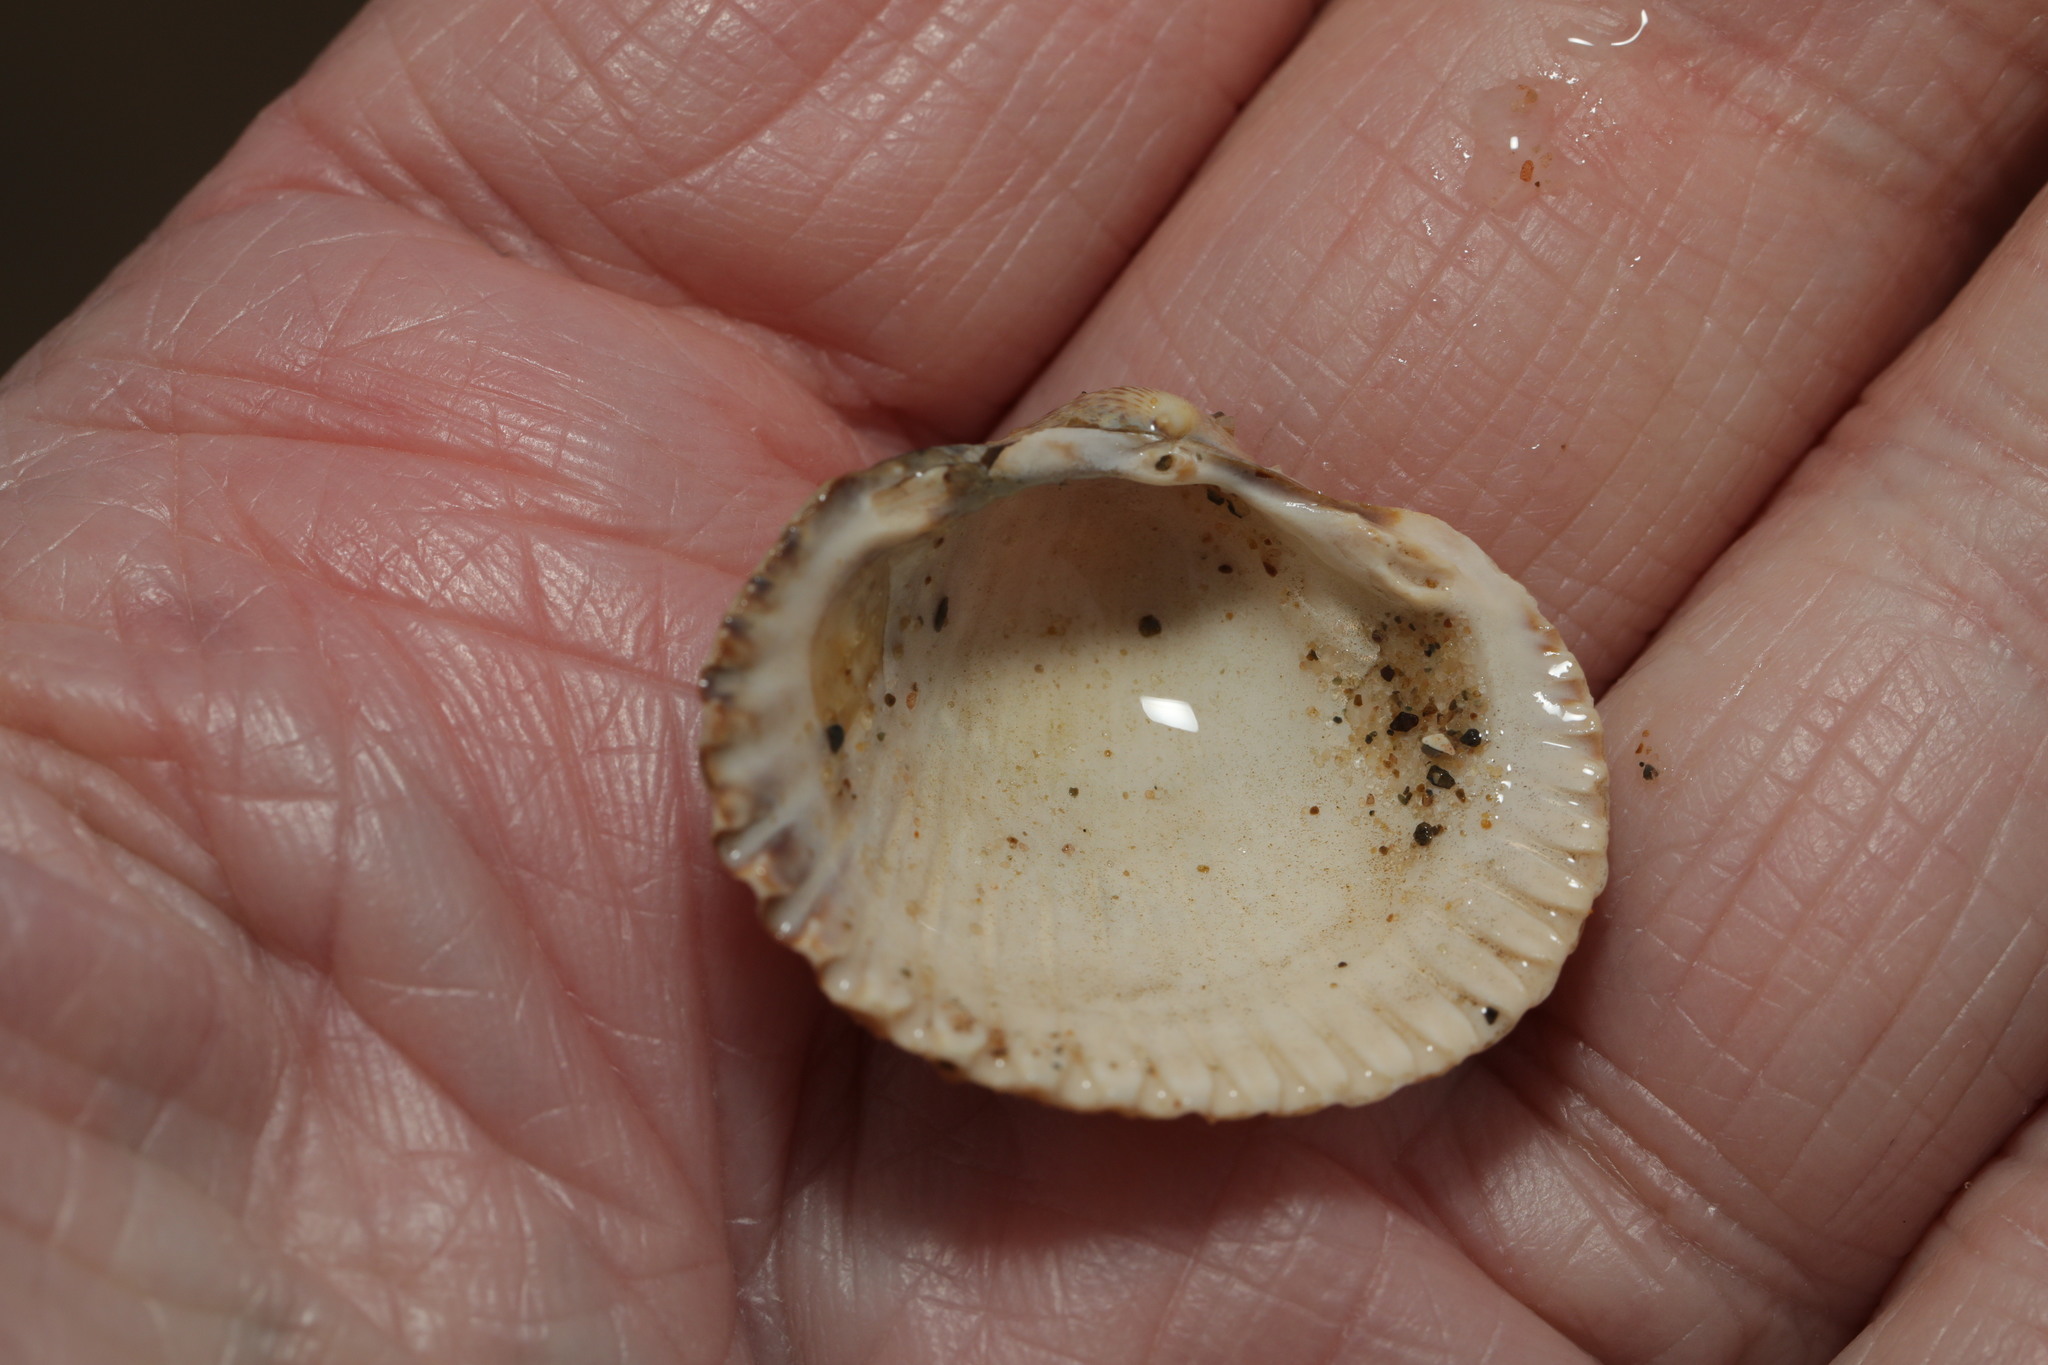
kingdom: Animalia
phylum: Mollusca
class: Bivalvia
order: Cardiida
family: Cardiidae
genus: Cerastoderma
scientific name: Cerastoderma edule
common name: Common cockle
